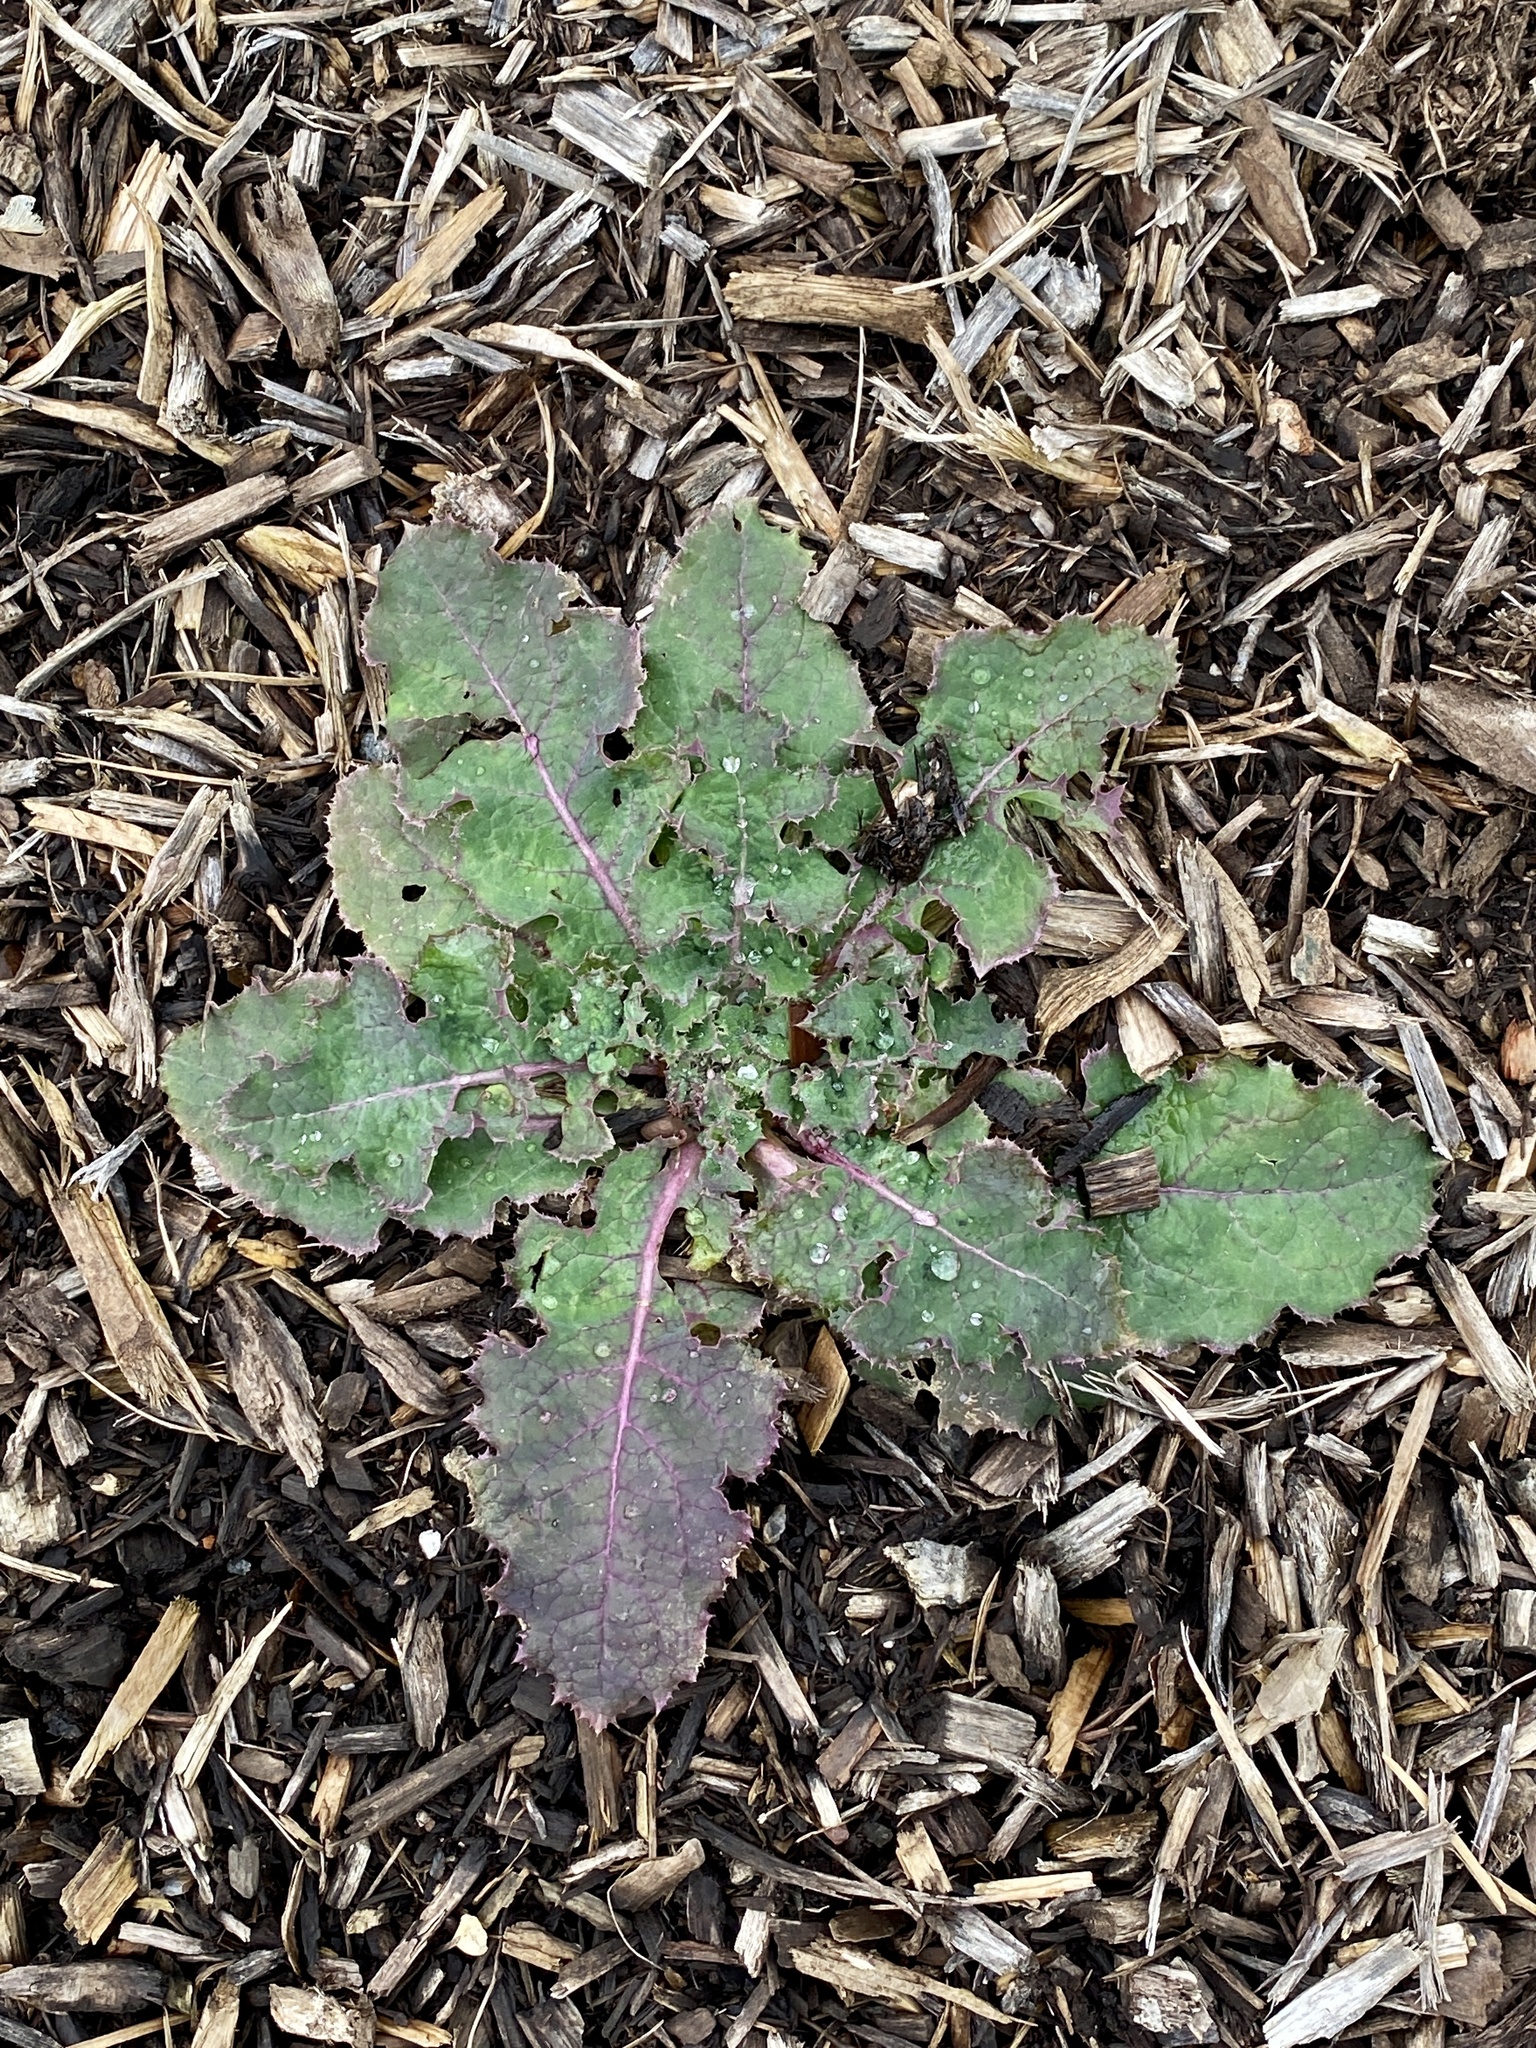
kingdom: Plantae
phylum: Tracheophyta
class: Magnoliopsida
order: Asterales
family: Asteraceae
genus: Sonchus
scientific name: Sonchus asper
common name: Prickly sow-thistle
